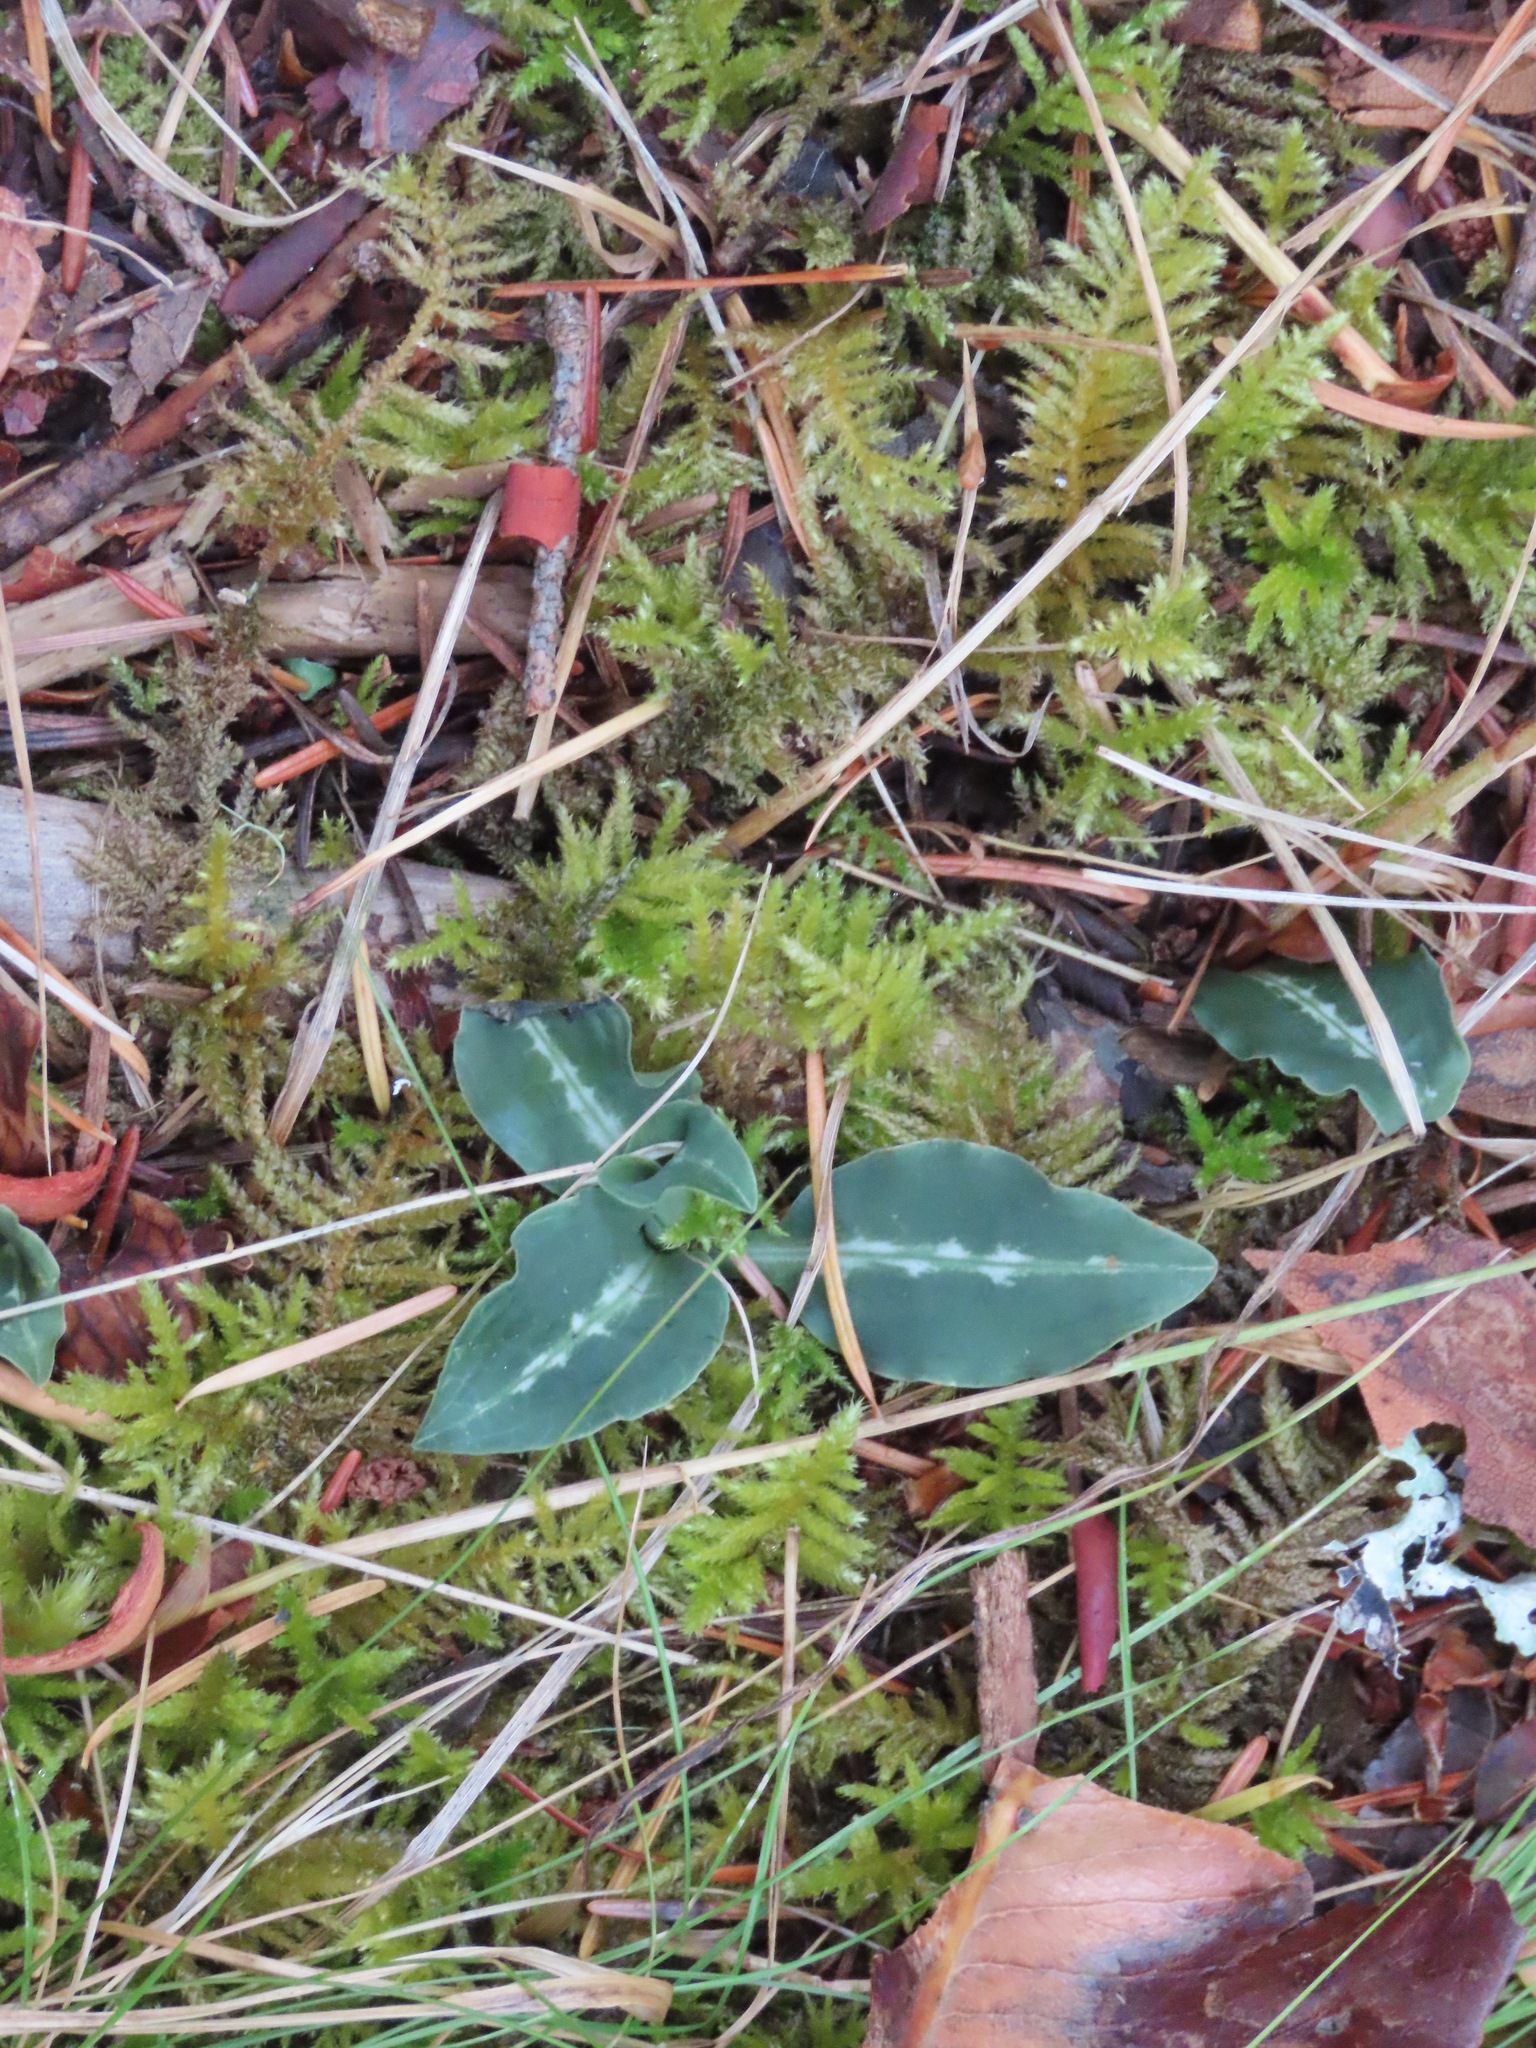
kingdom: Plantae
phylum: Tracheophyta
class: Liliopsida
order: Asparagales
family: Orchidaceae
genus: Goodyera
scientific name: Goodyera oblongifolia
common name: Giant rattlesnake-plantain
